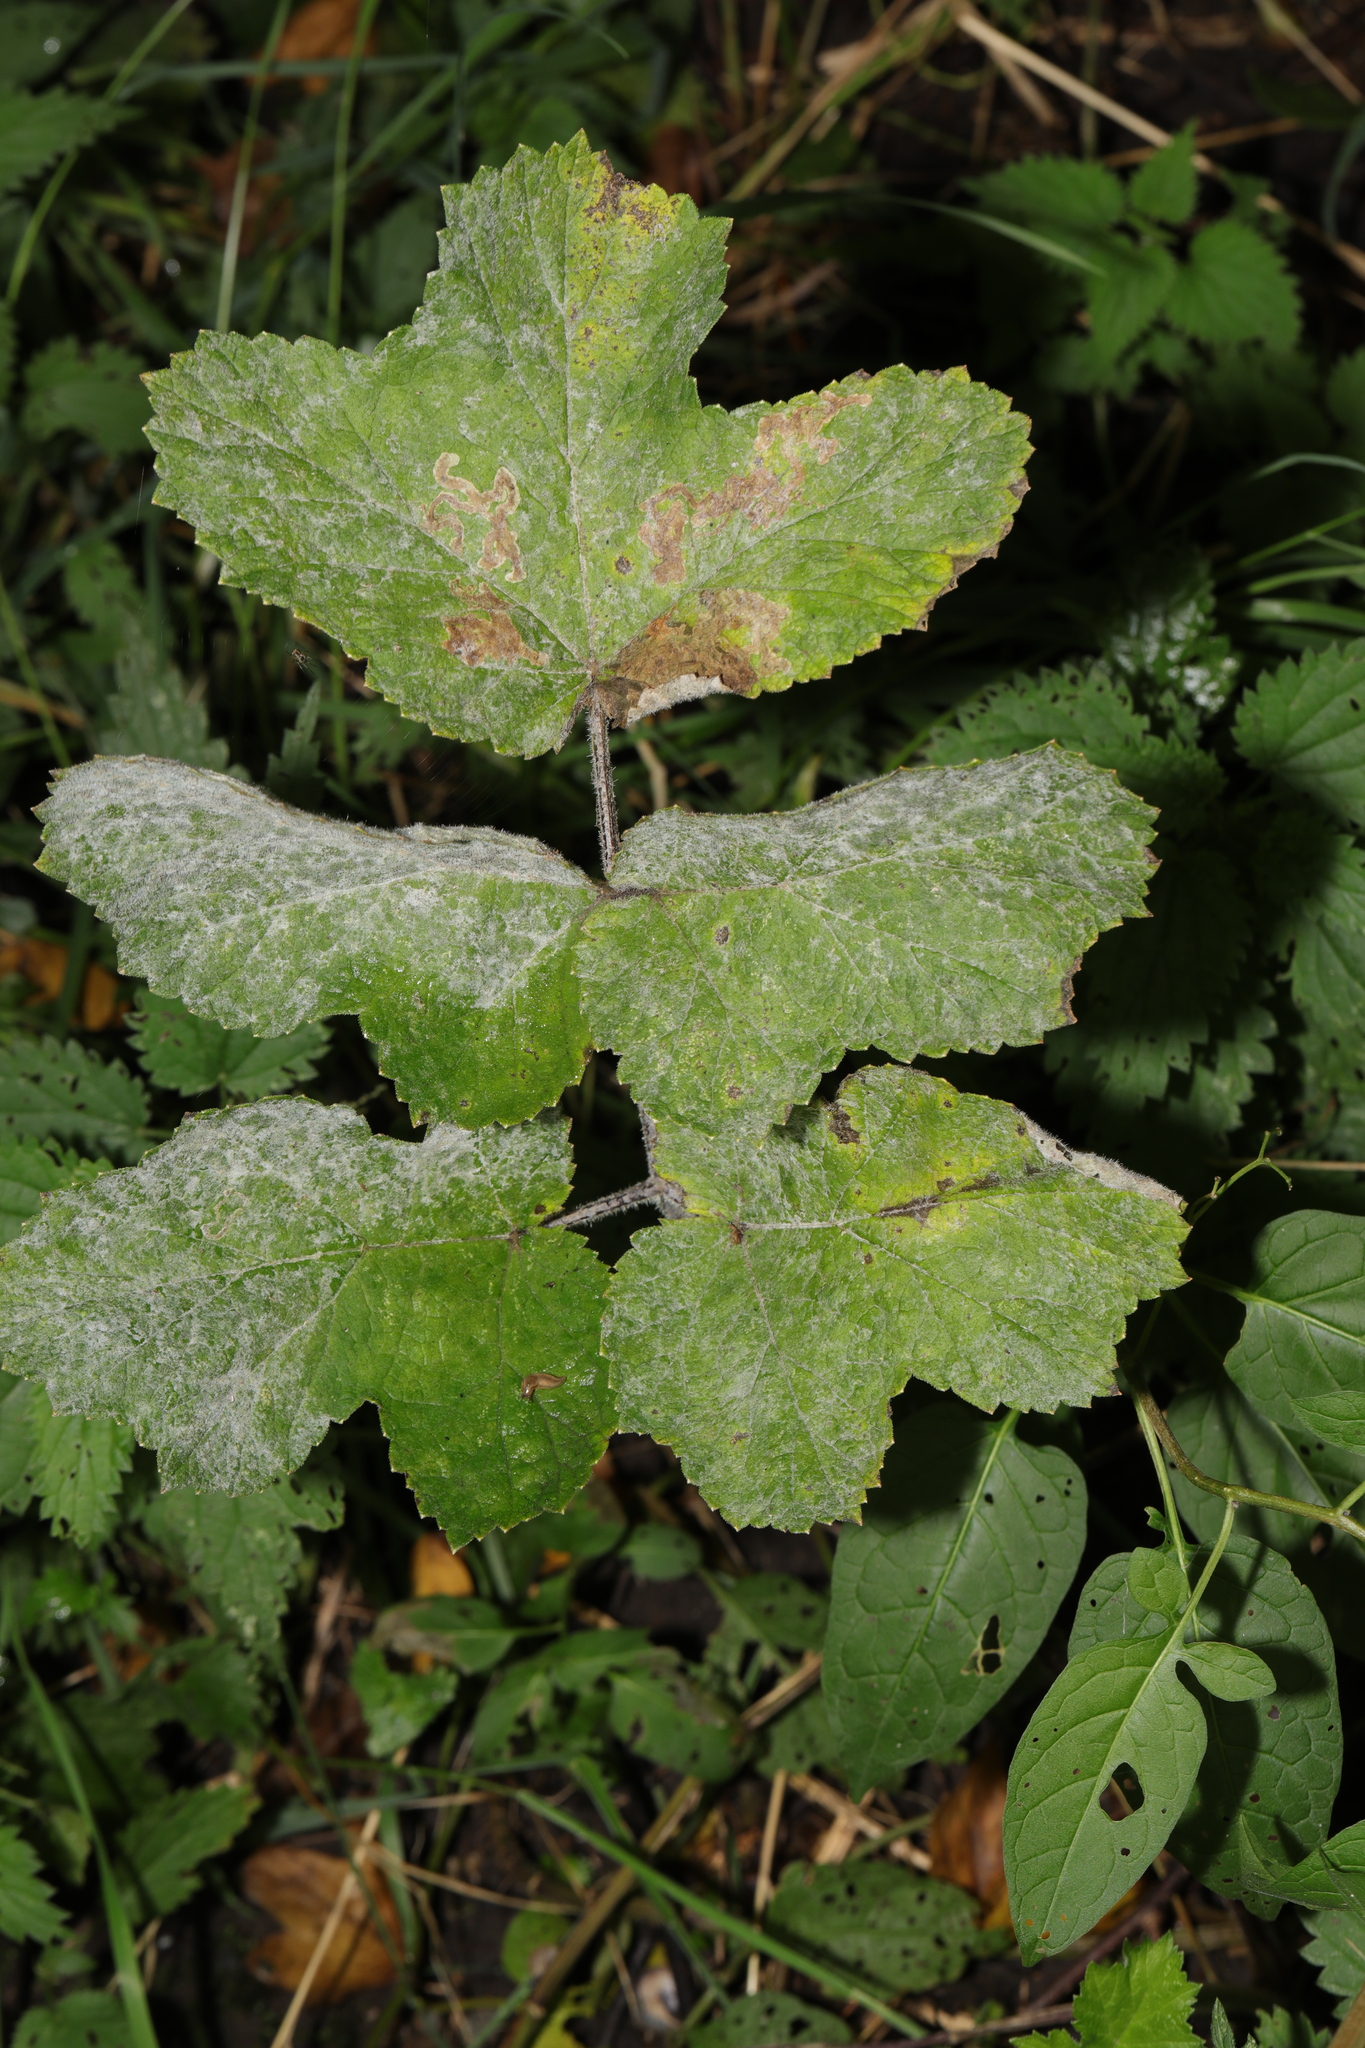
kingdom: Plantae
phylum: Tracheophyta
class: Magnoliopsida
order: Apiales
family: Apiaceae
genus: Heracleum
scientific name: Heracleum sphondylium
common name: Hogweed
